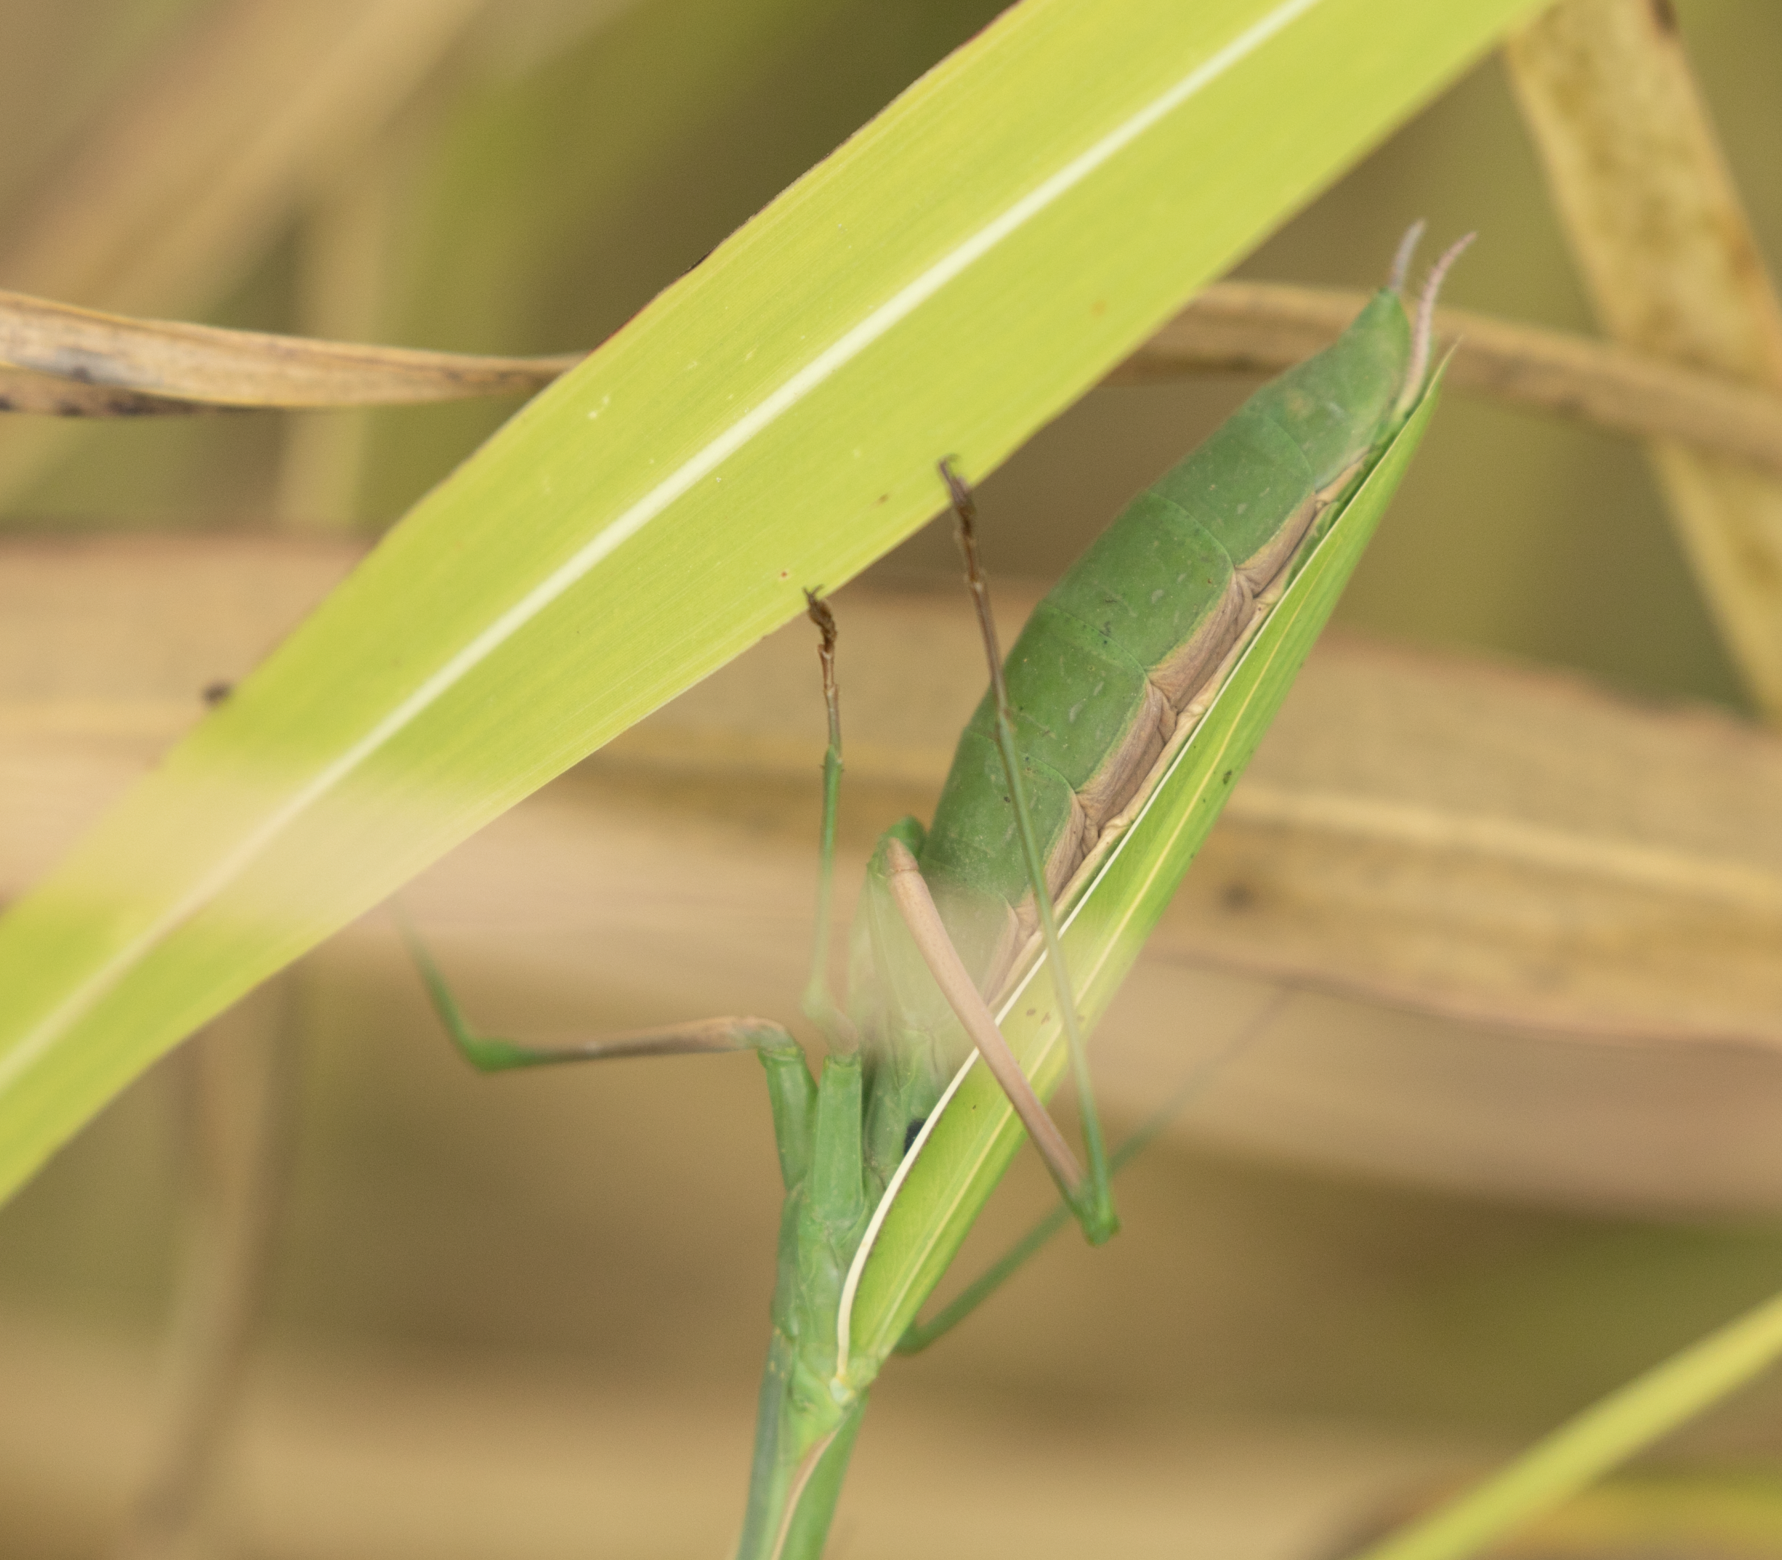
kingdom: Animalia
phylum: Arthropoda
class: Insecta
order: Mantodea
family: Mantidae
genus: Mantis
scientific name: Mantis religiosa
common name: Praying mantis
